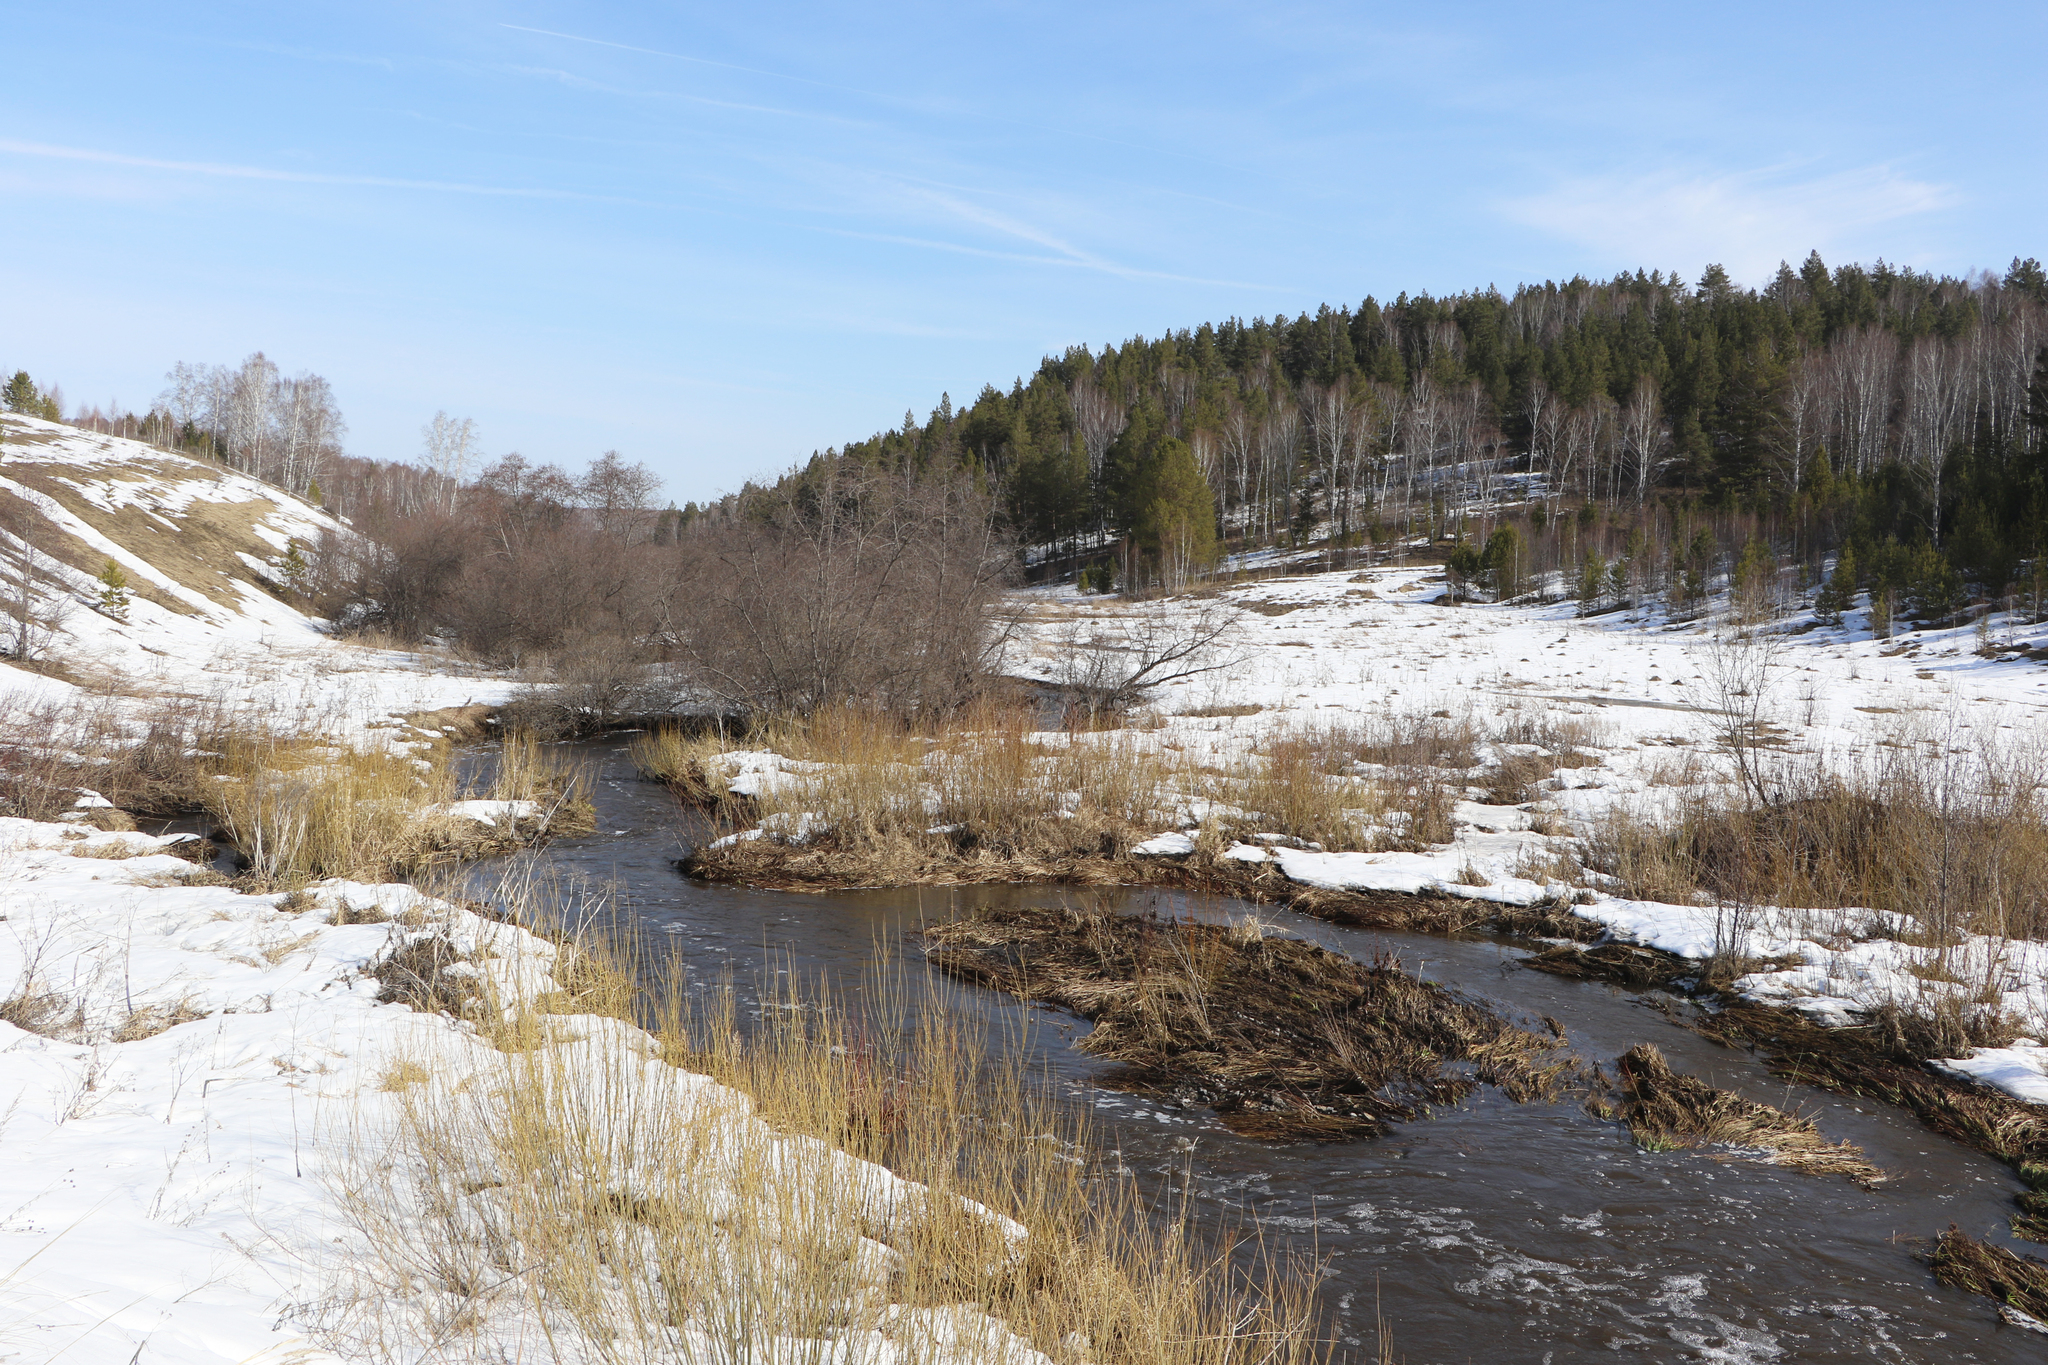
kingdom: Plantae
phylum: Tracheophyta
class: Pinopsida
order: Pinales
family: Pinaceae
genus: Pinus
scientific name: Pinus sylvestris
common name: Scots pine
